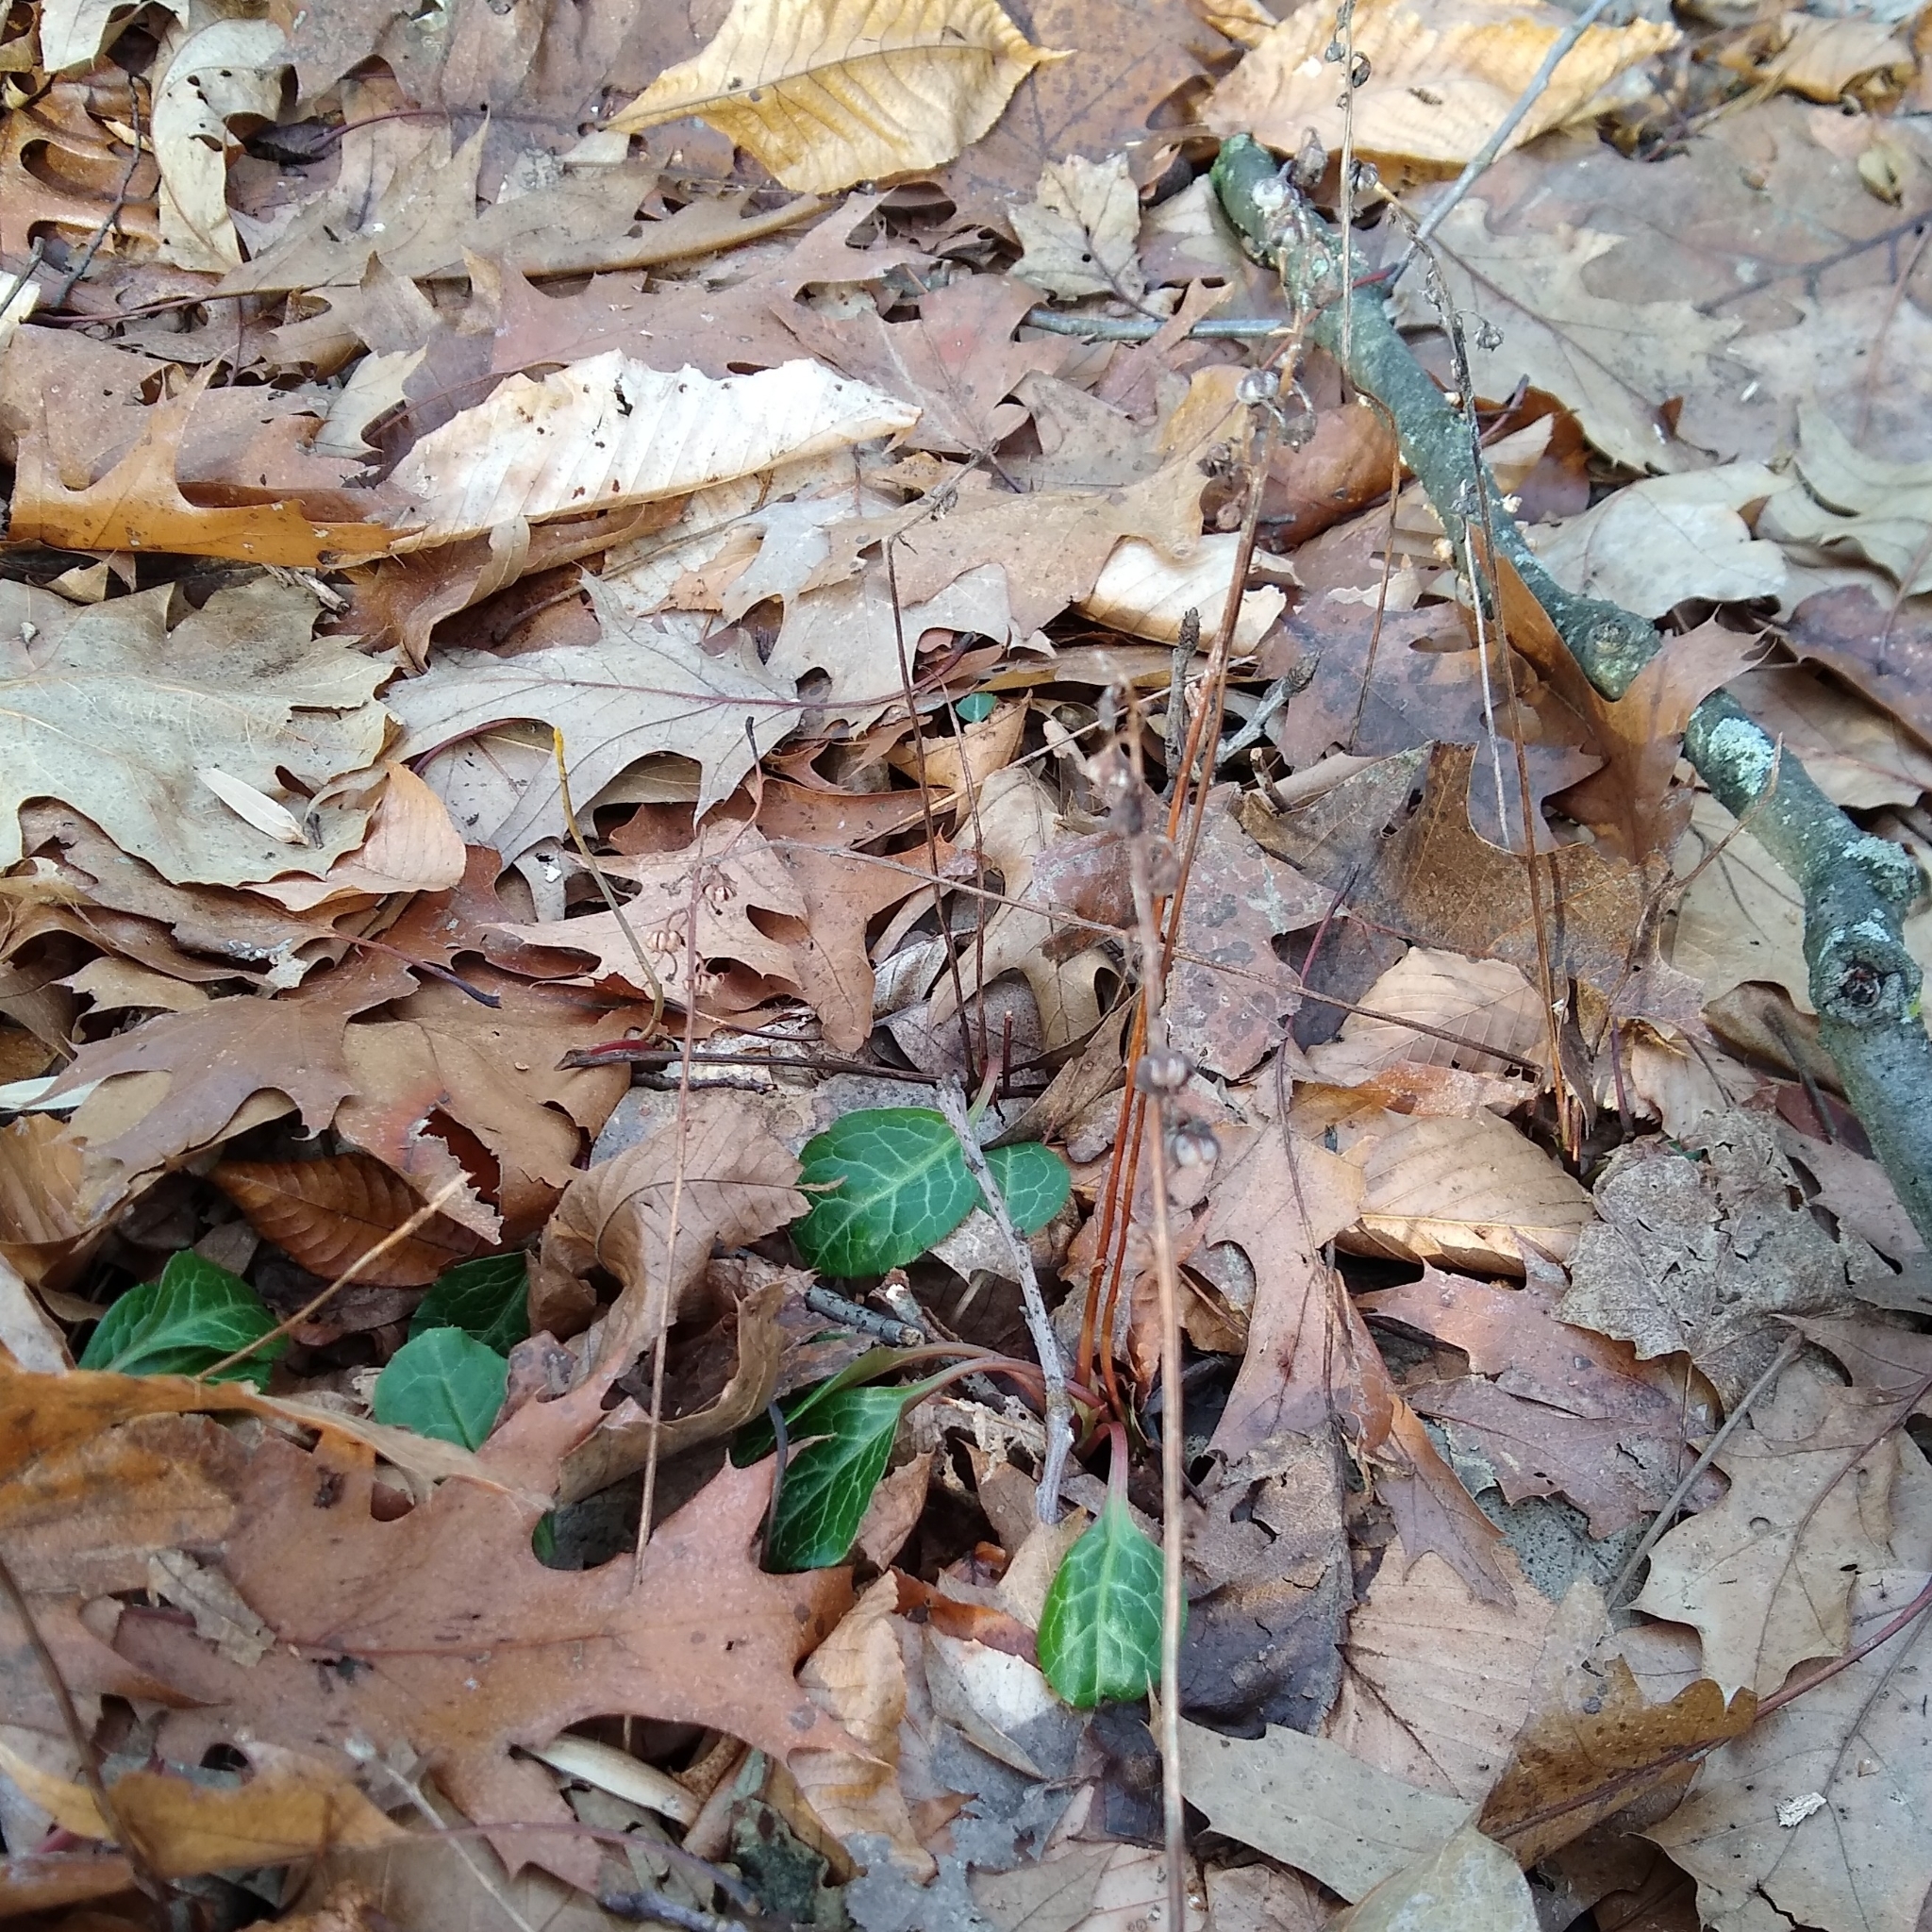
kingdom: Plantae
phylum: Tracheophyta
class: Magnoliopsida
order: Ericales
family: Ericaceae
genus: Pyrola
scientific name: Pyrola americana
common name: American wintergreen
